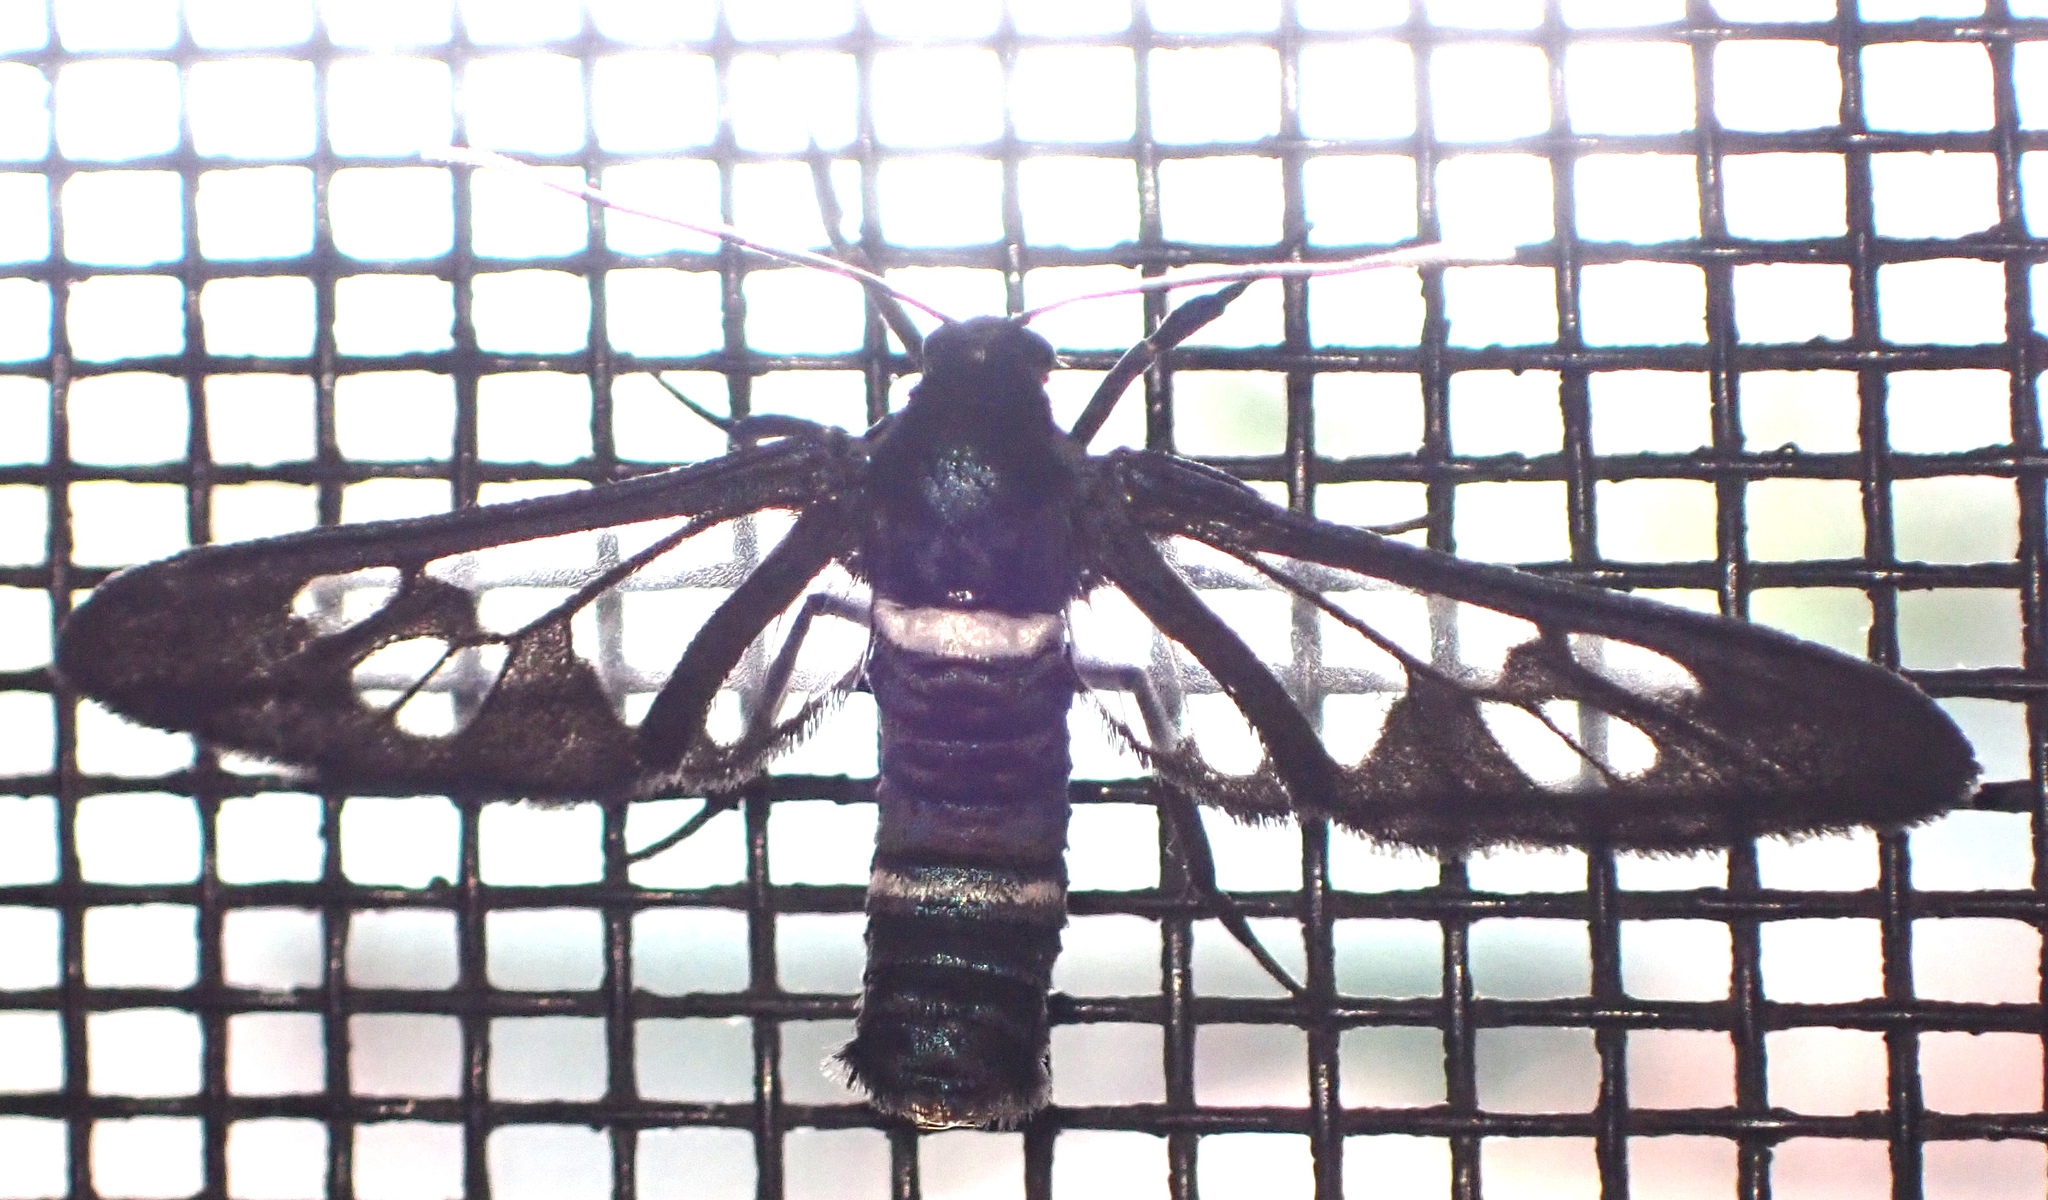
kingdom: Animalia
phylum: Arthropoda
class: Insecta
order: Lepidoptera
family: Erebidae
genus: Ceryx
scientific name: Ceryx Agaphthora albimacula
